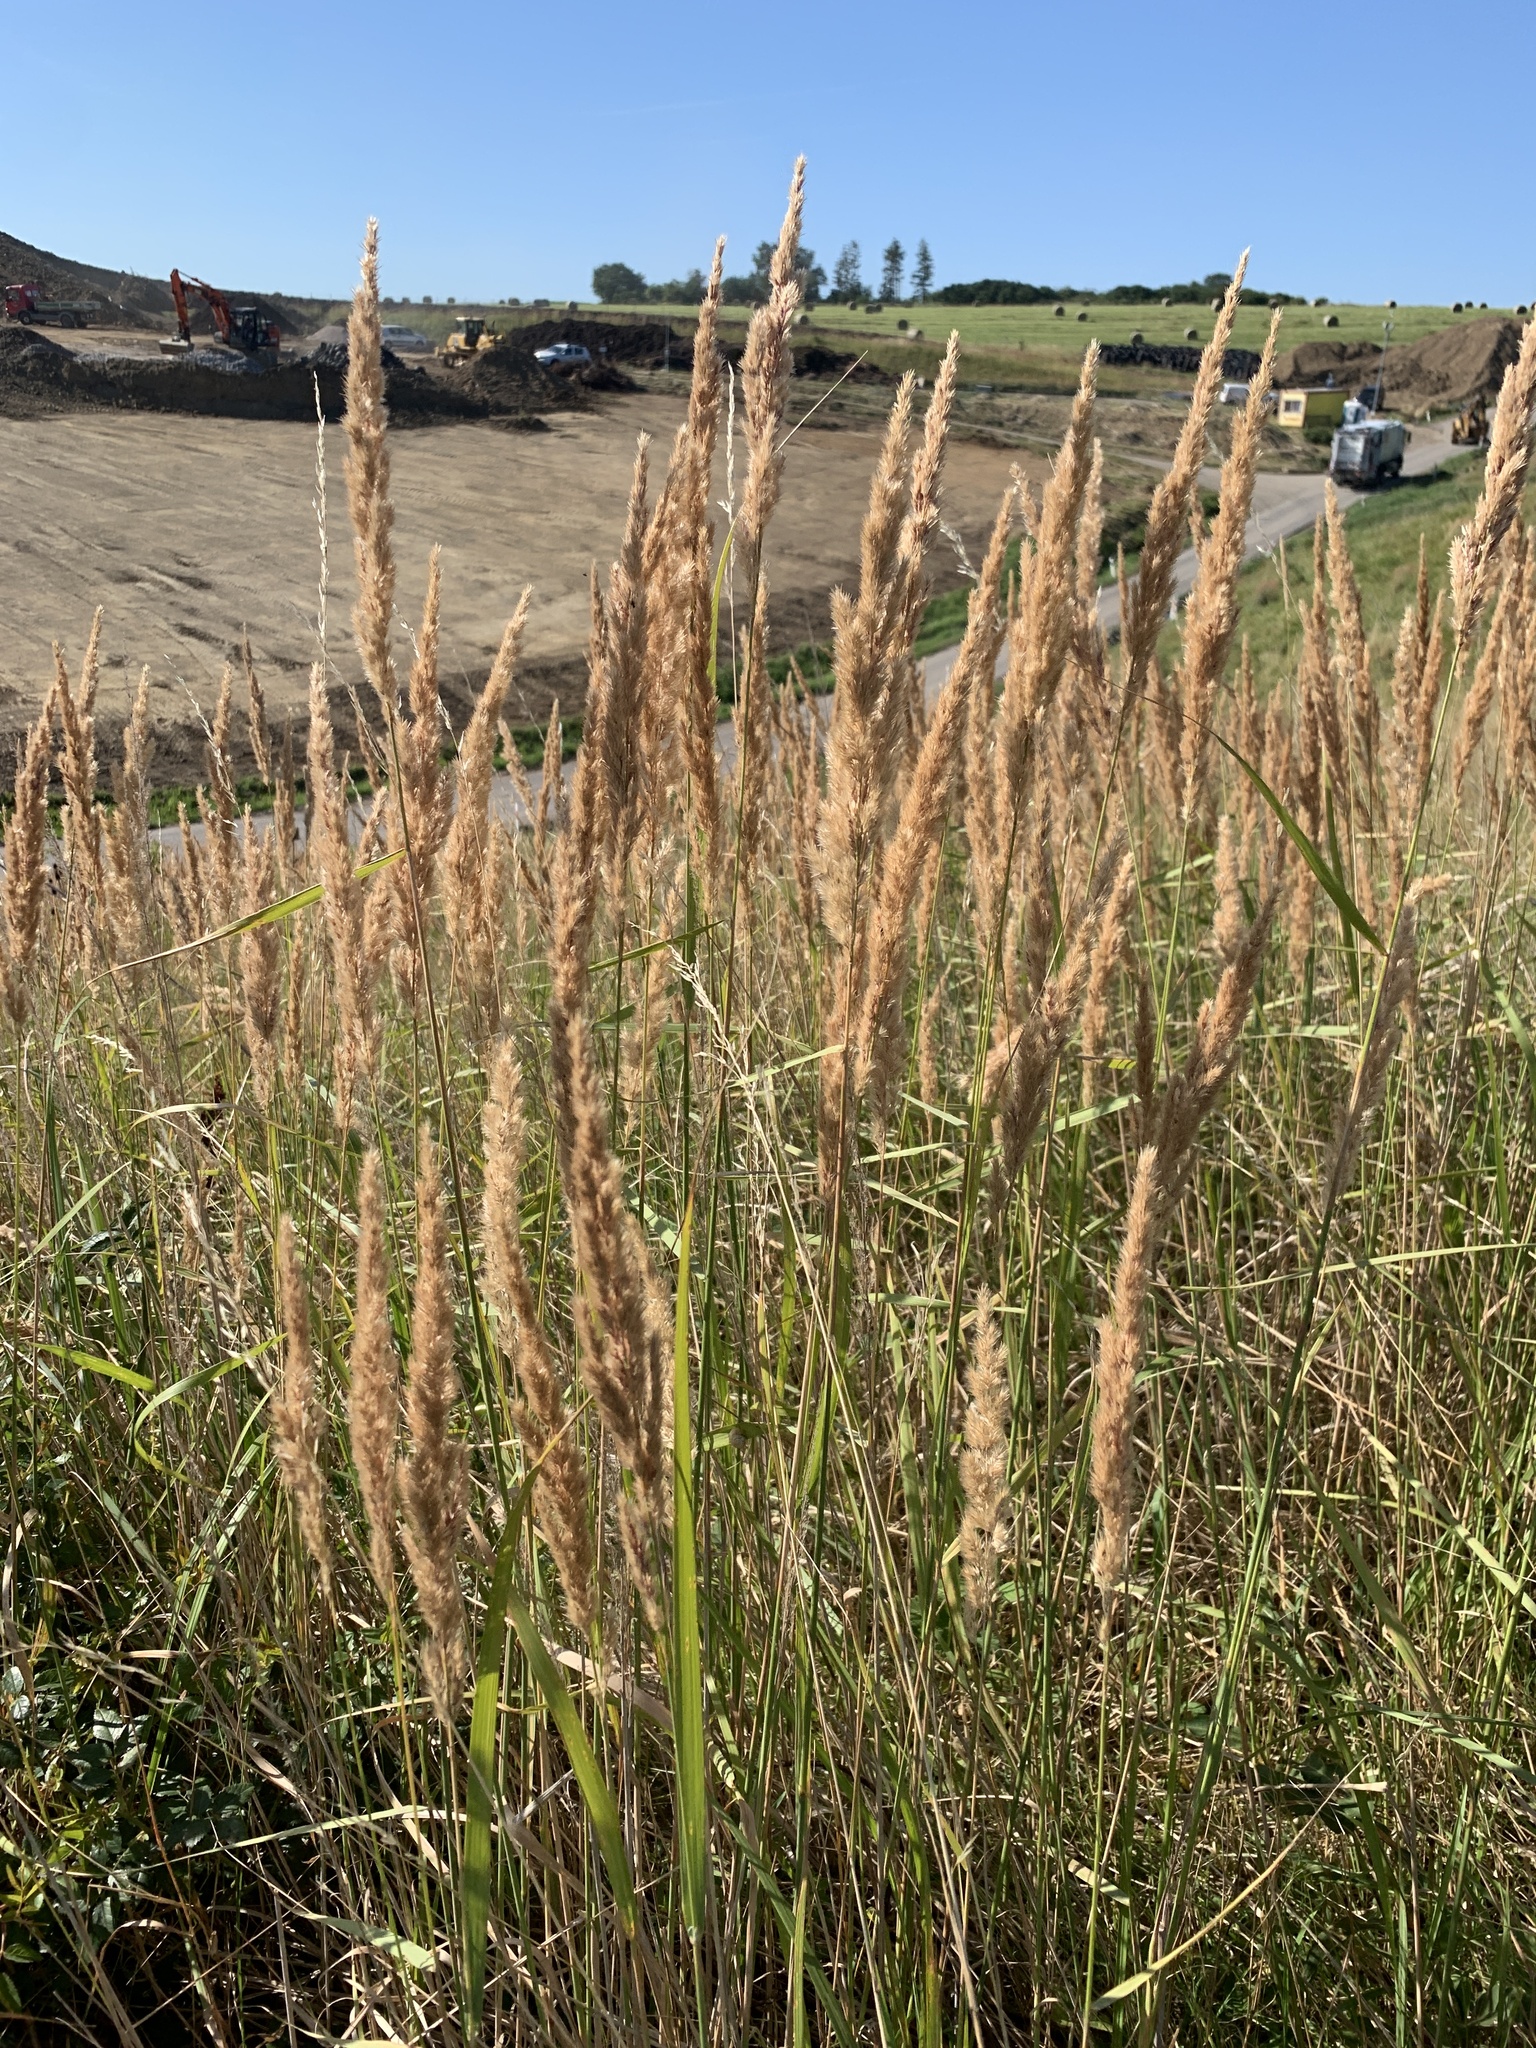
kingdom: Plantae
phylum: Tracheophyta
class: Liliopsida
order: Poales
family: Poaceae
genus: Calamagrostis
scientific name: Calamagrostis epigejos
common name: Wood small-reed
